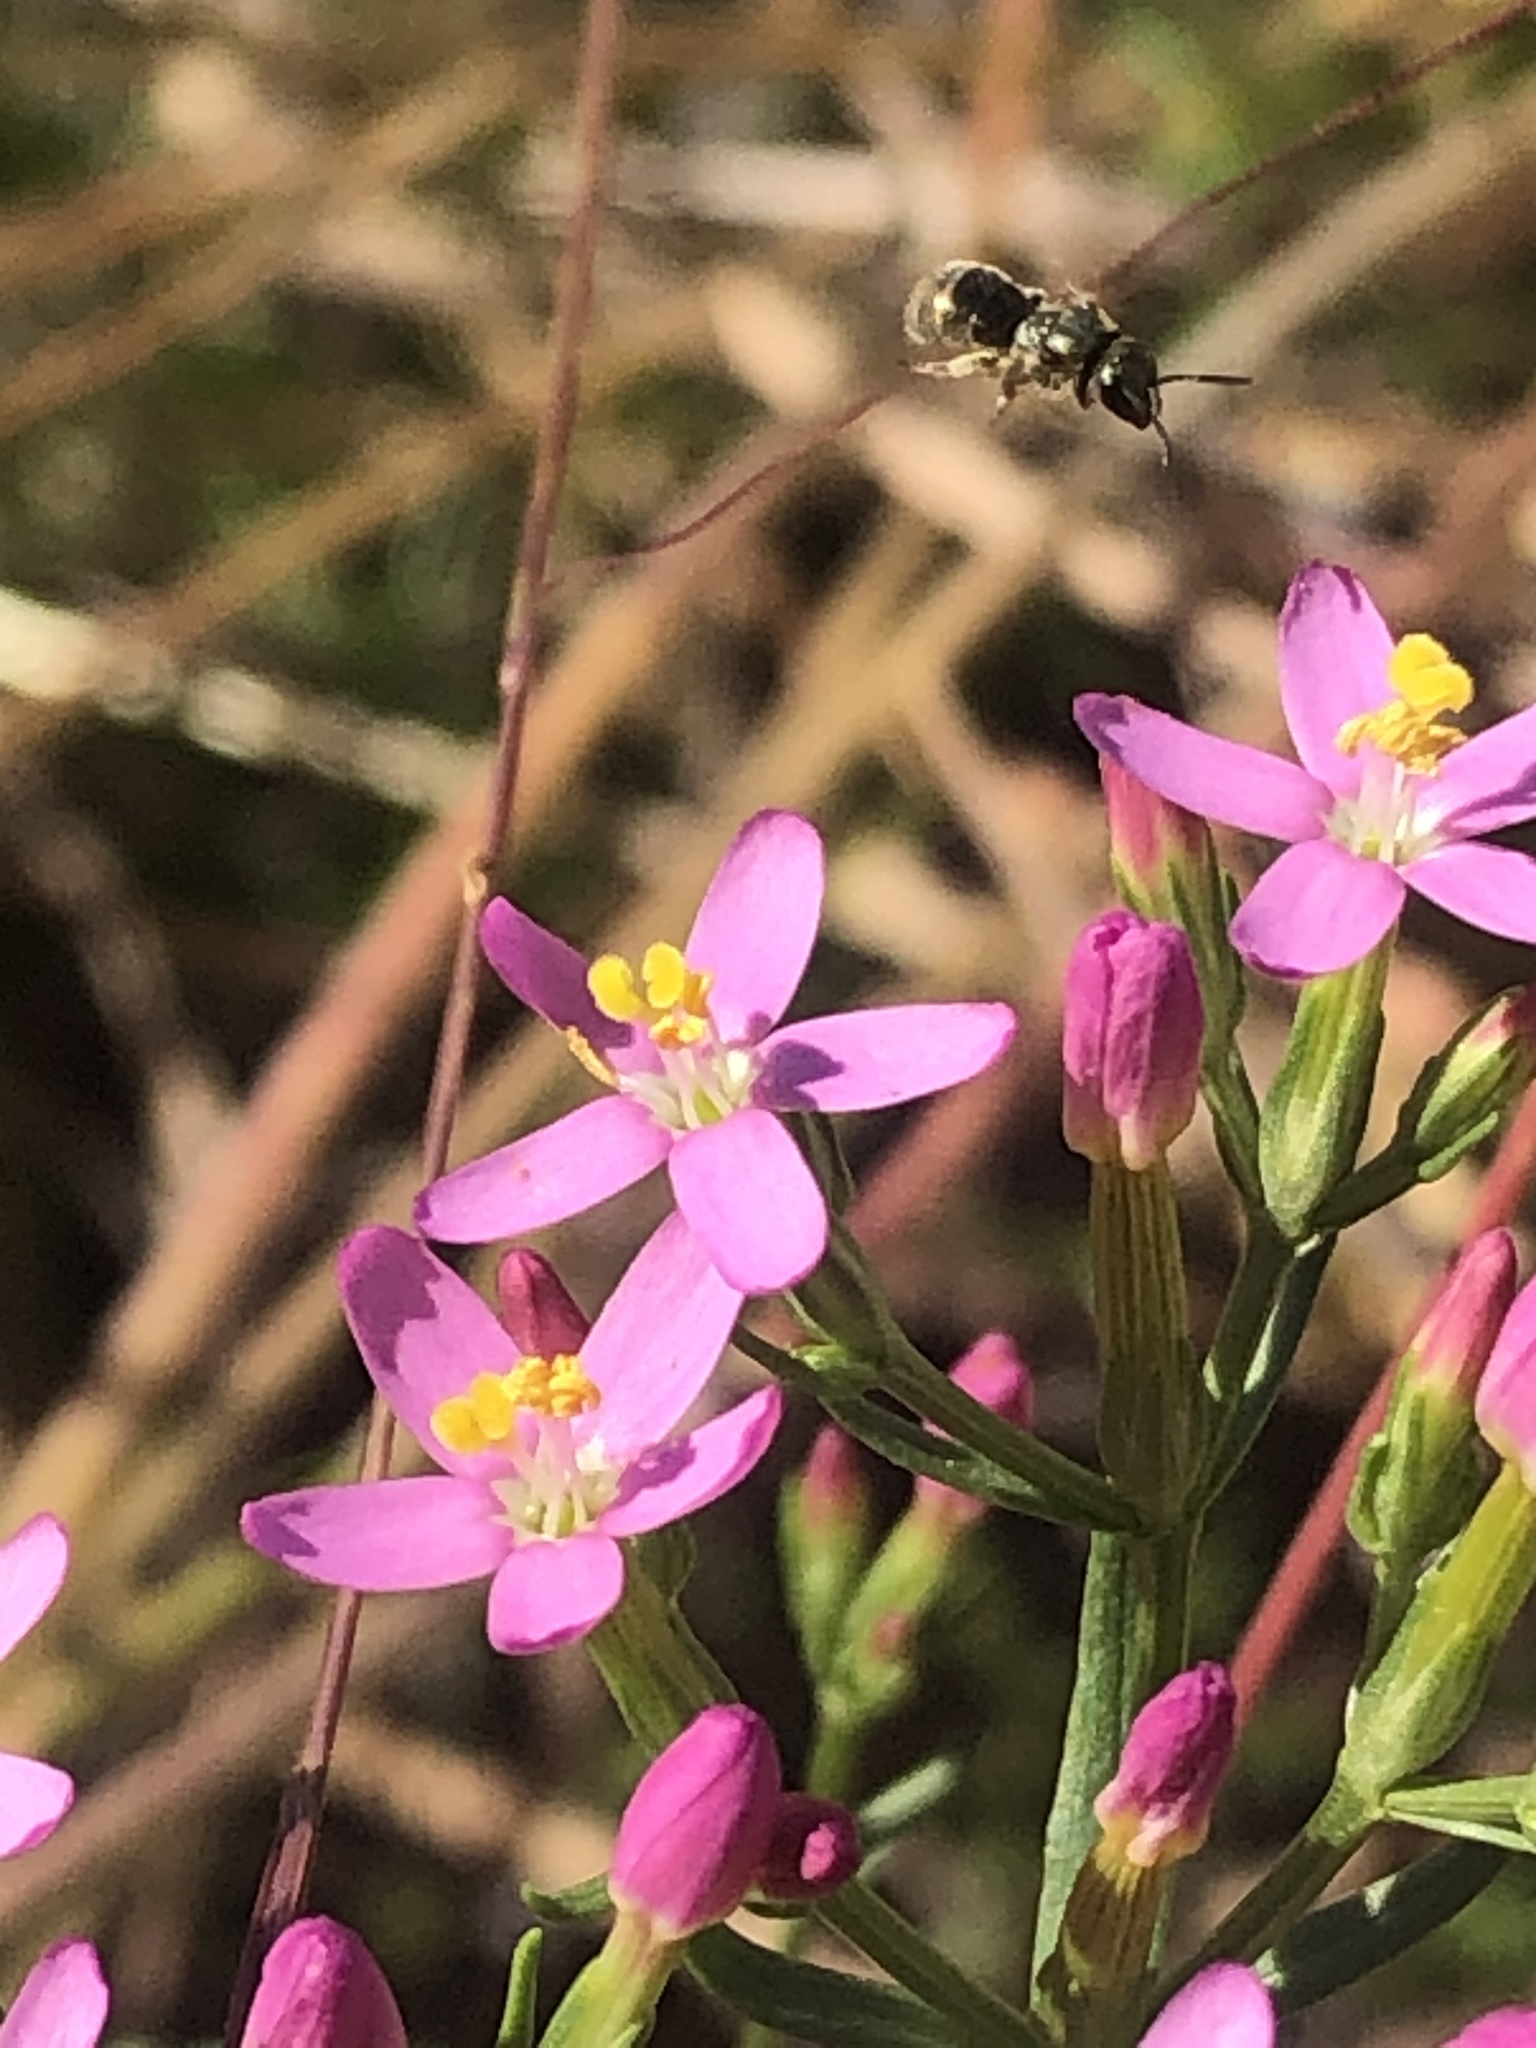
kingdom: Plantae
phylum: Tracheophyta
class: Magnoliopsida
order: Gentianales
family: Gentianaceae
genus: Centaurium
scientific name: Centaurium erythraea
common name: Common centaury
